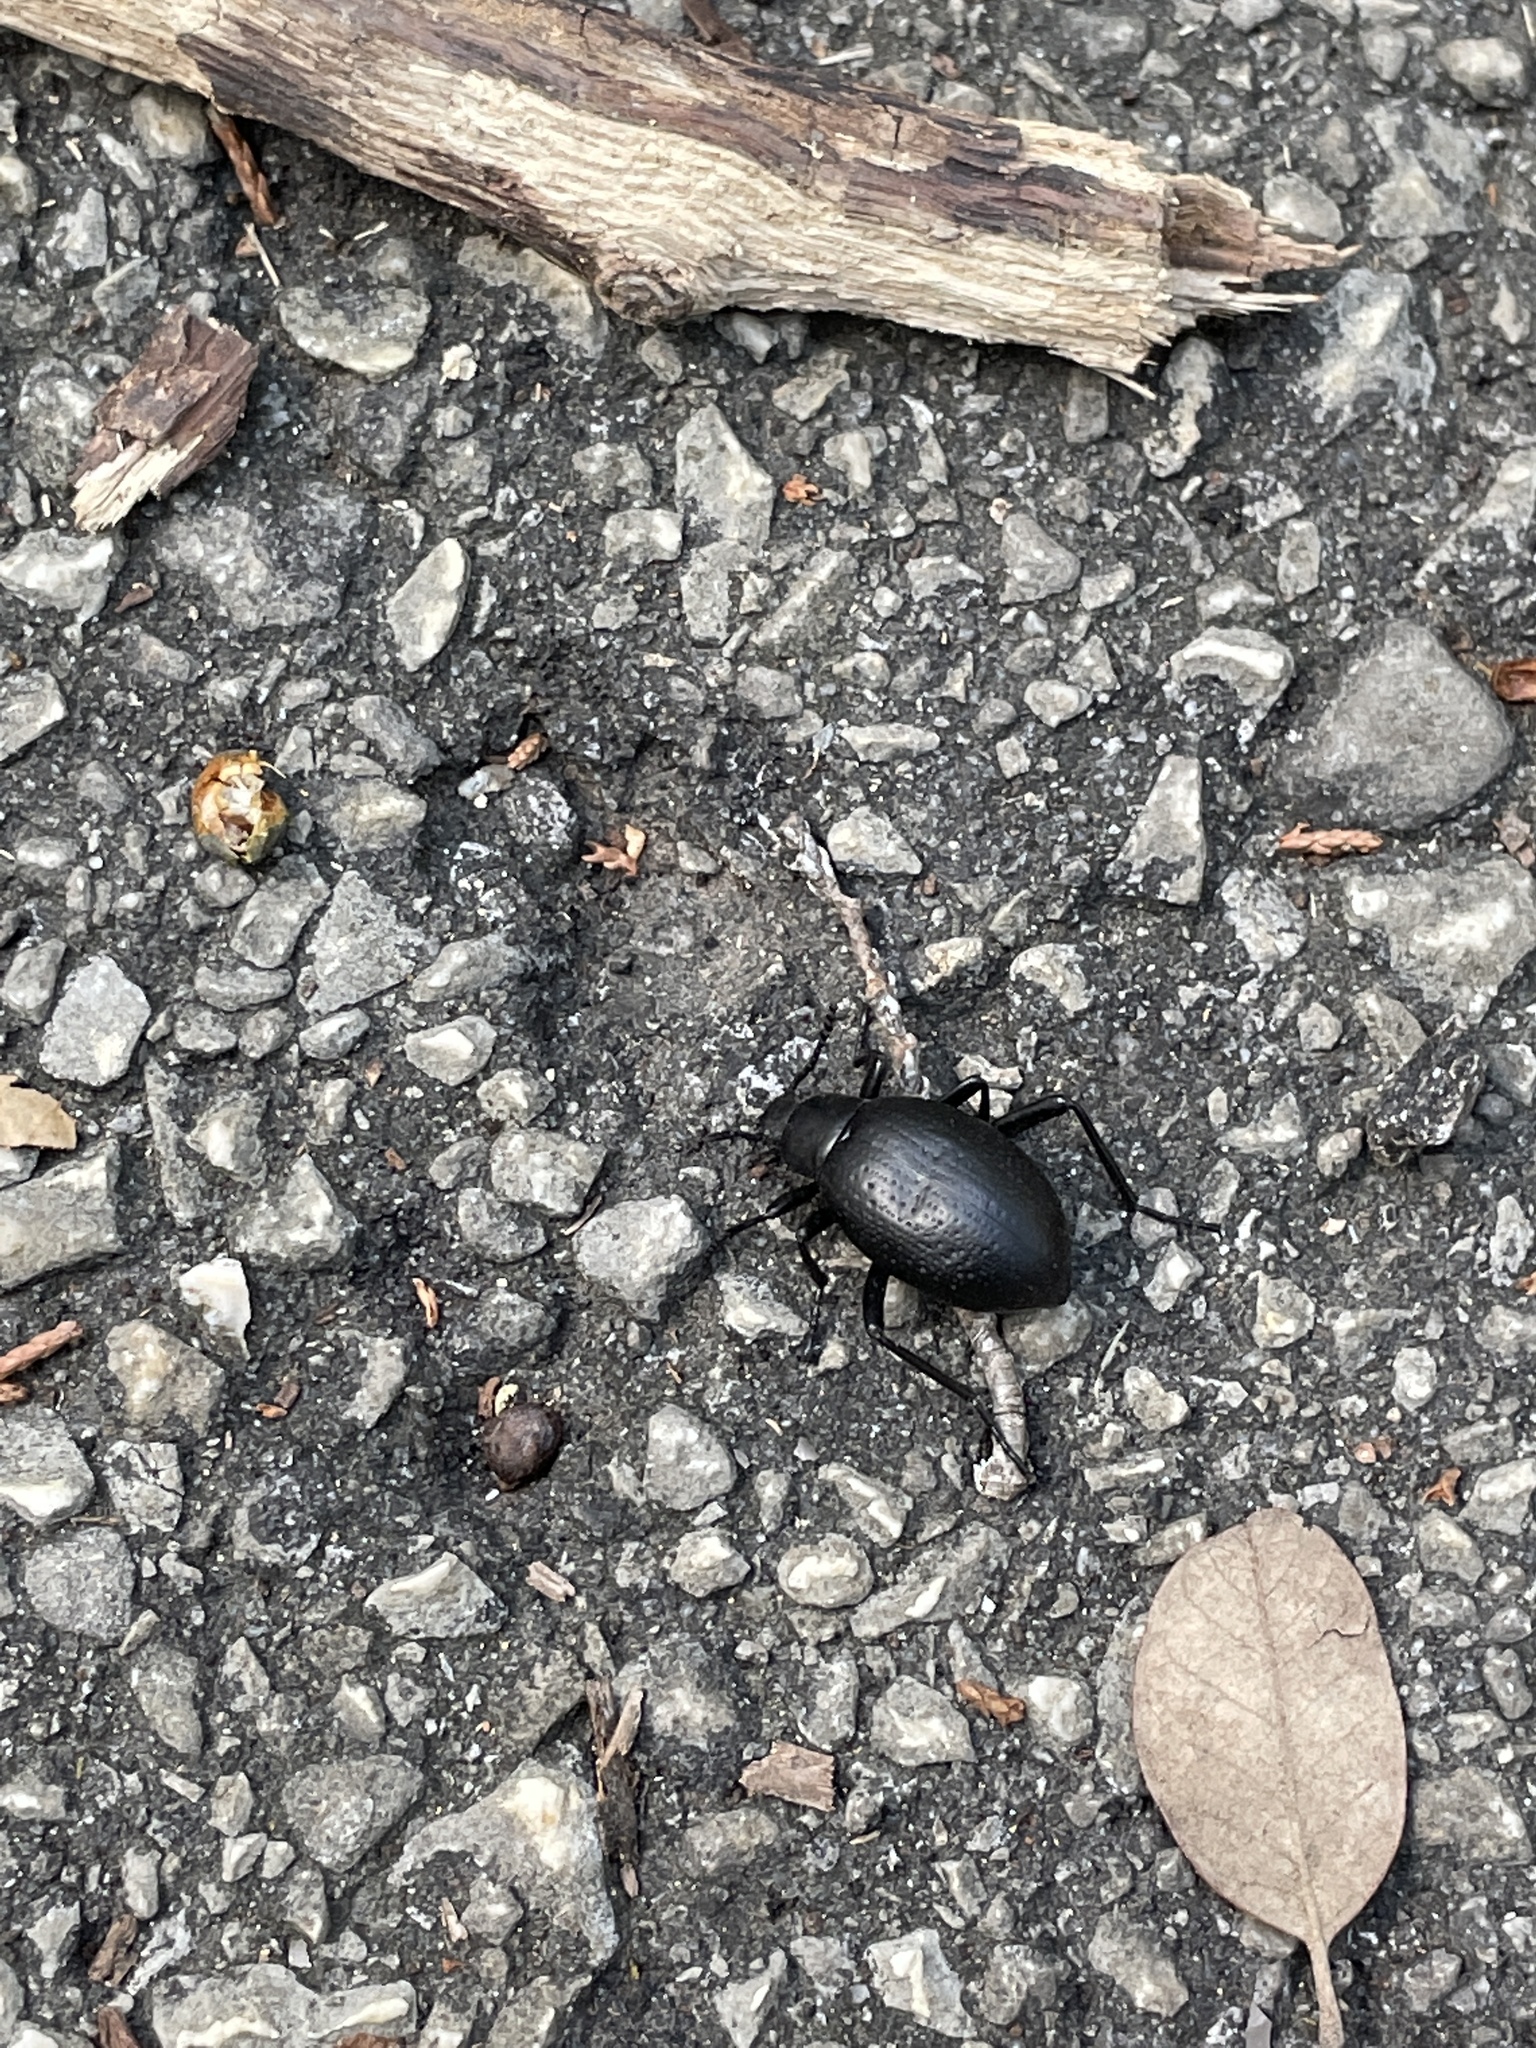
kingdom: Animalia
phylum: Arthropoda
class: Insecta
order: Coleoptera
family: Tenebrionidae
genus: Eleodes
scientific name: Eleodes goryi
